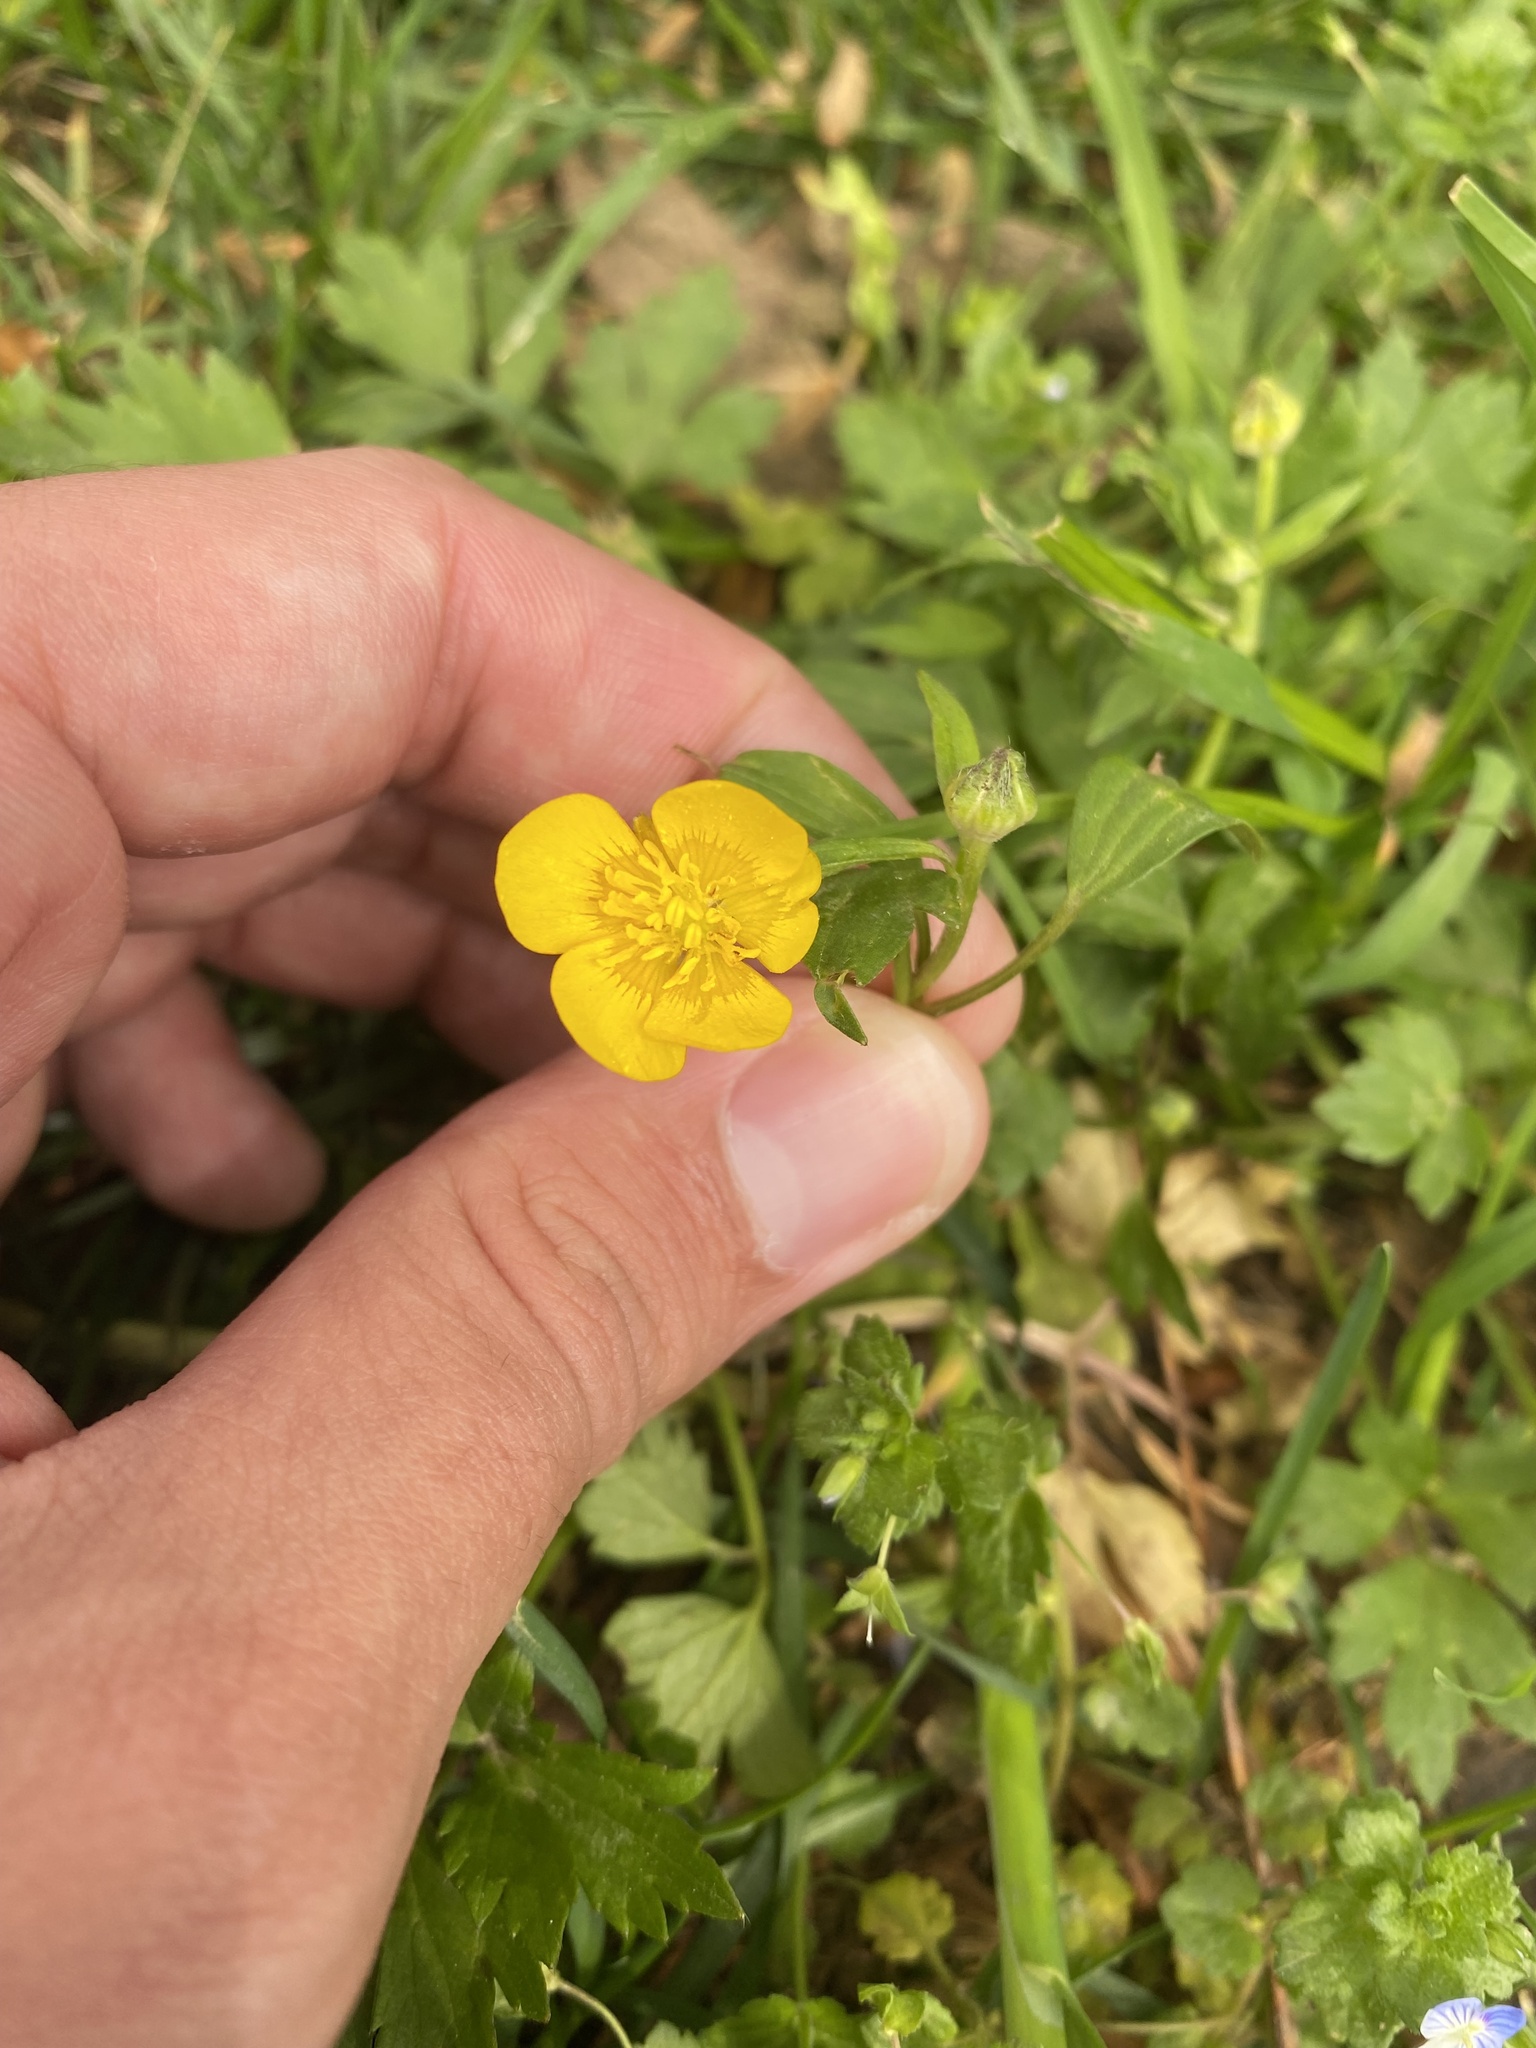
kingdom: Plantae
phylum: Tracheophyta
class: Magnoliopsida
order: Ranunculales
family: Ranunculaceae
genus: Ranunculus
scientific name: Ranunculus repens
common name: Creeping buttercup
